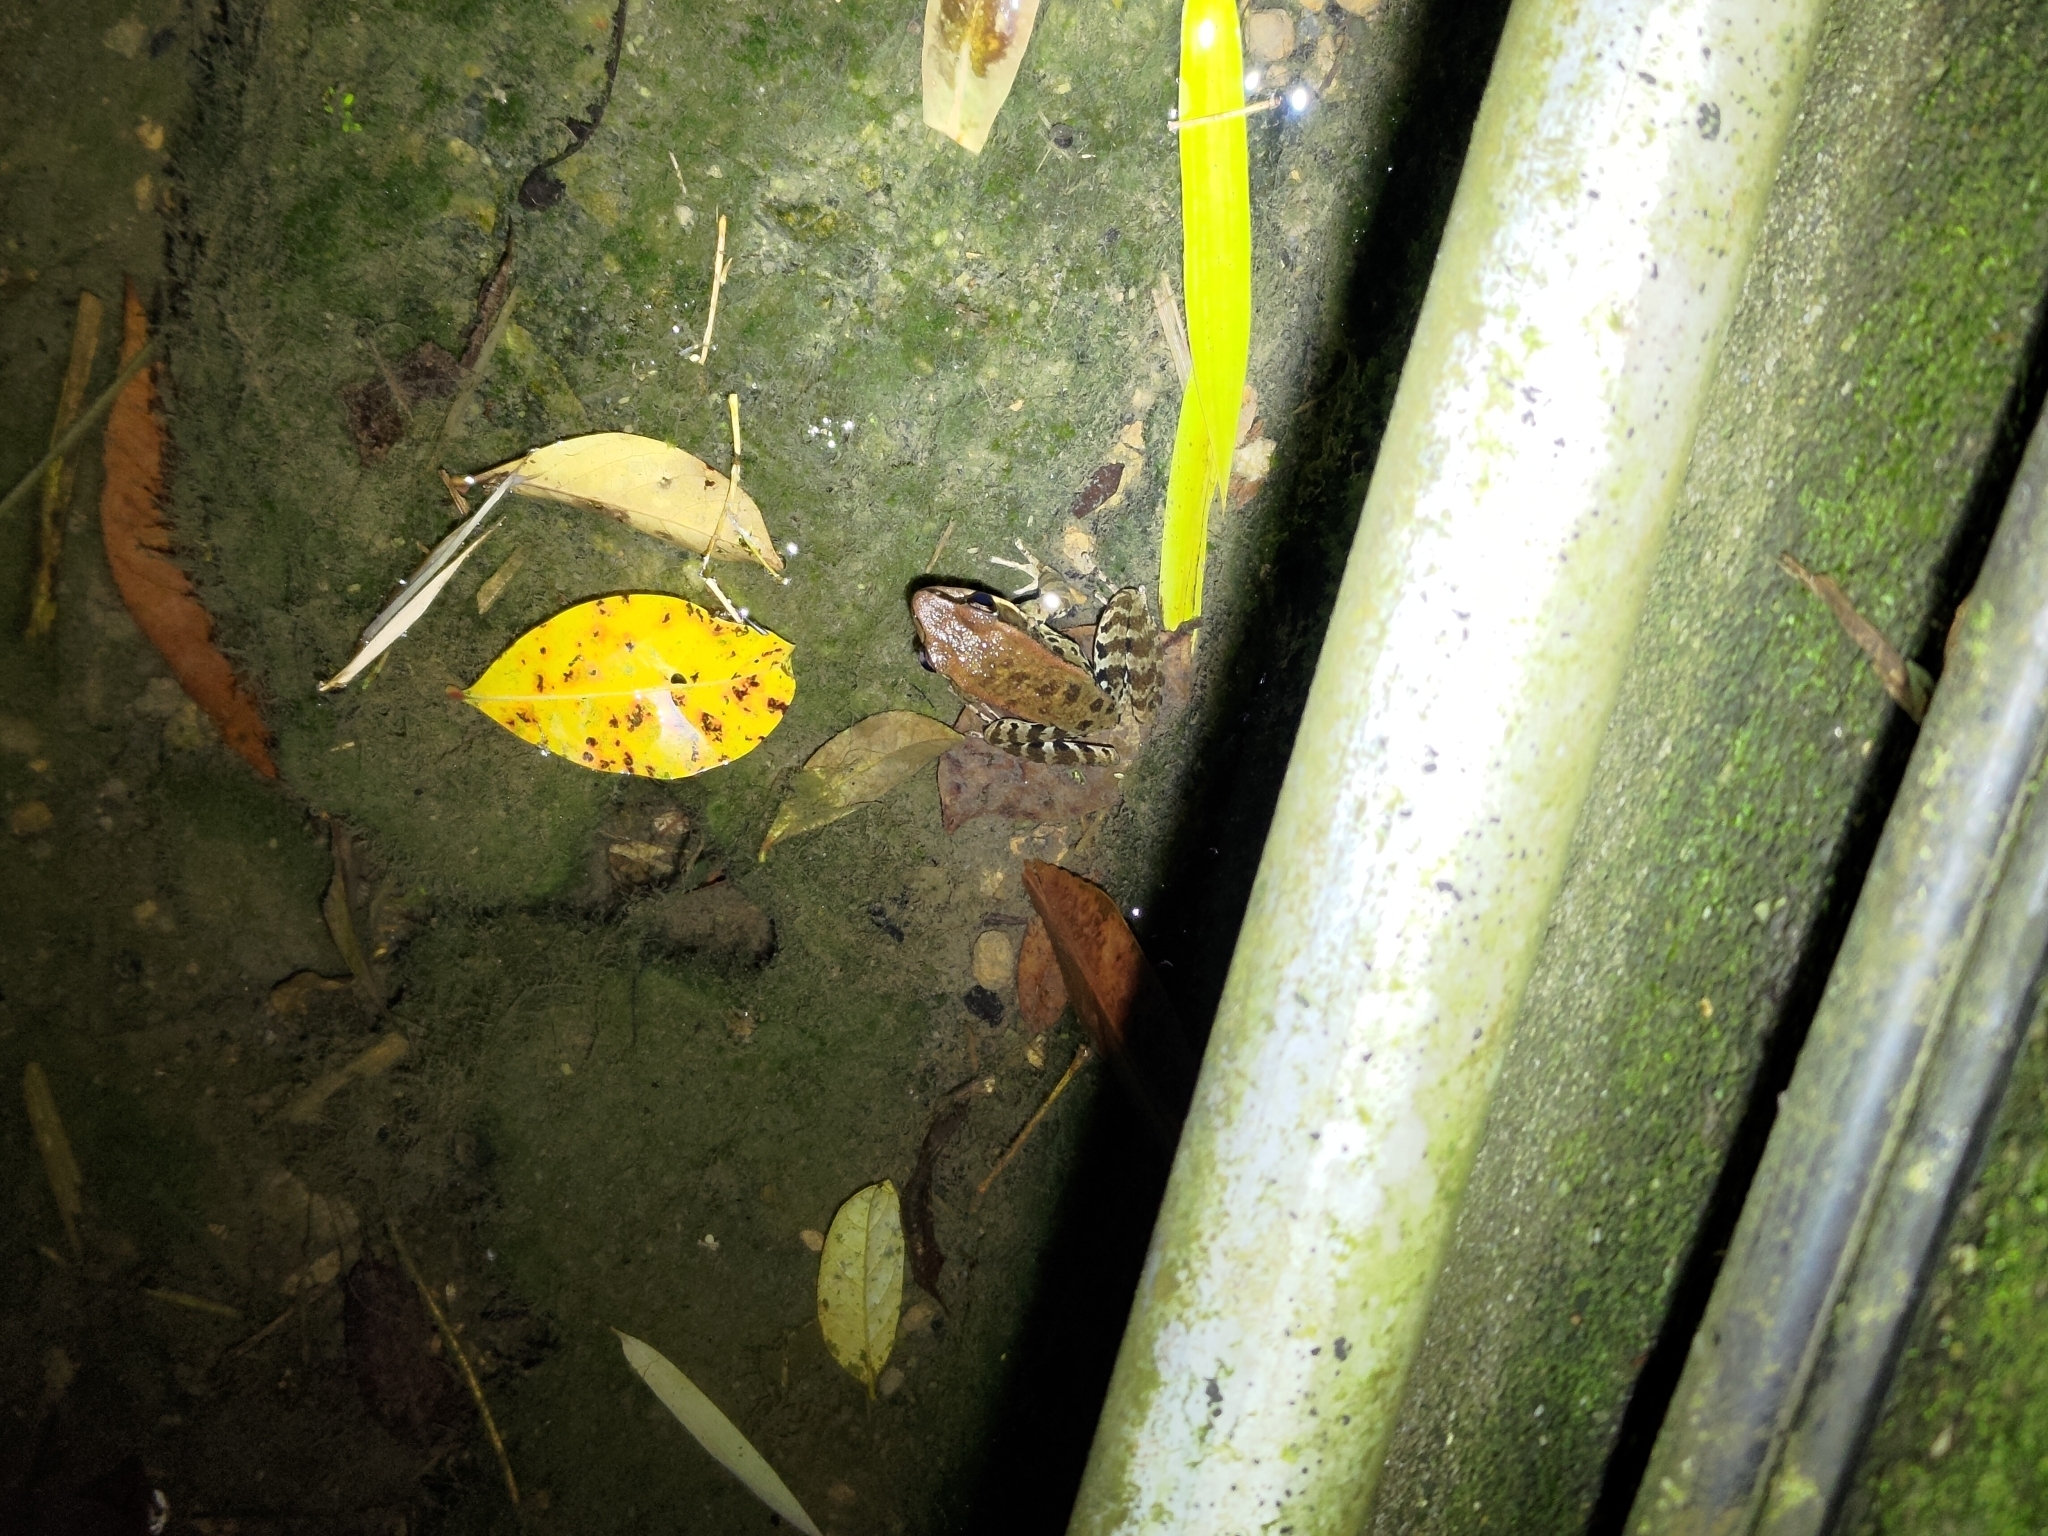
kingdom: Animalia
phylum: Chordata
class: Amphibia
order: Anura
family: Ranidae
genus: Hylarana
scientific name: Hylarana latouchii
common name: Broad-folded frog
